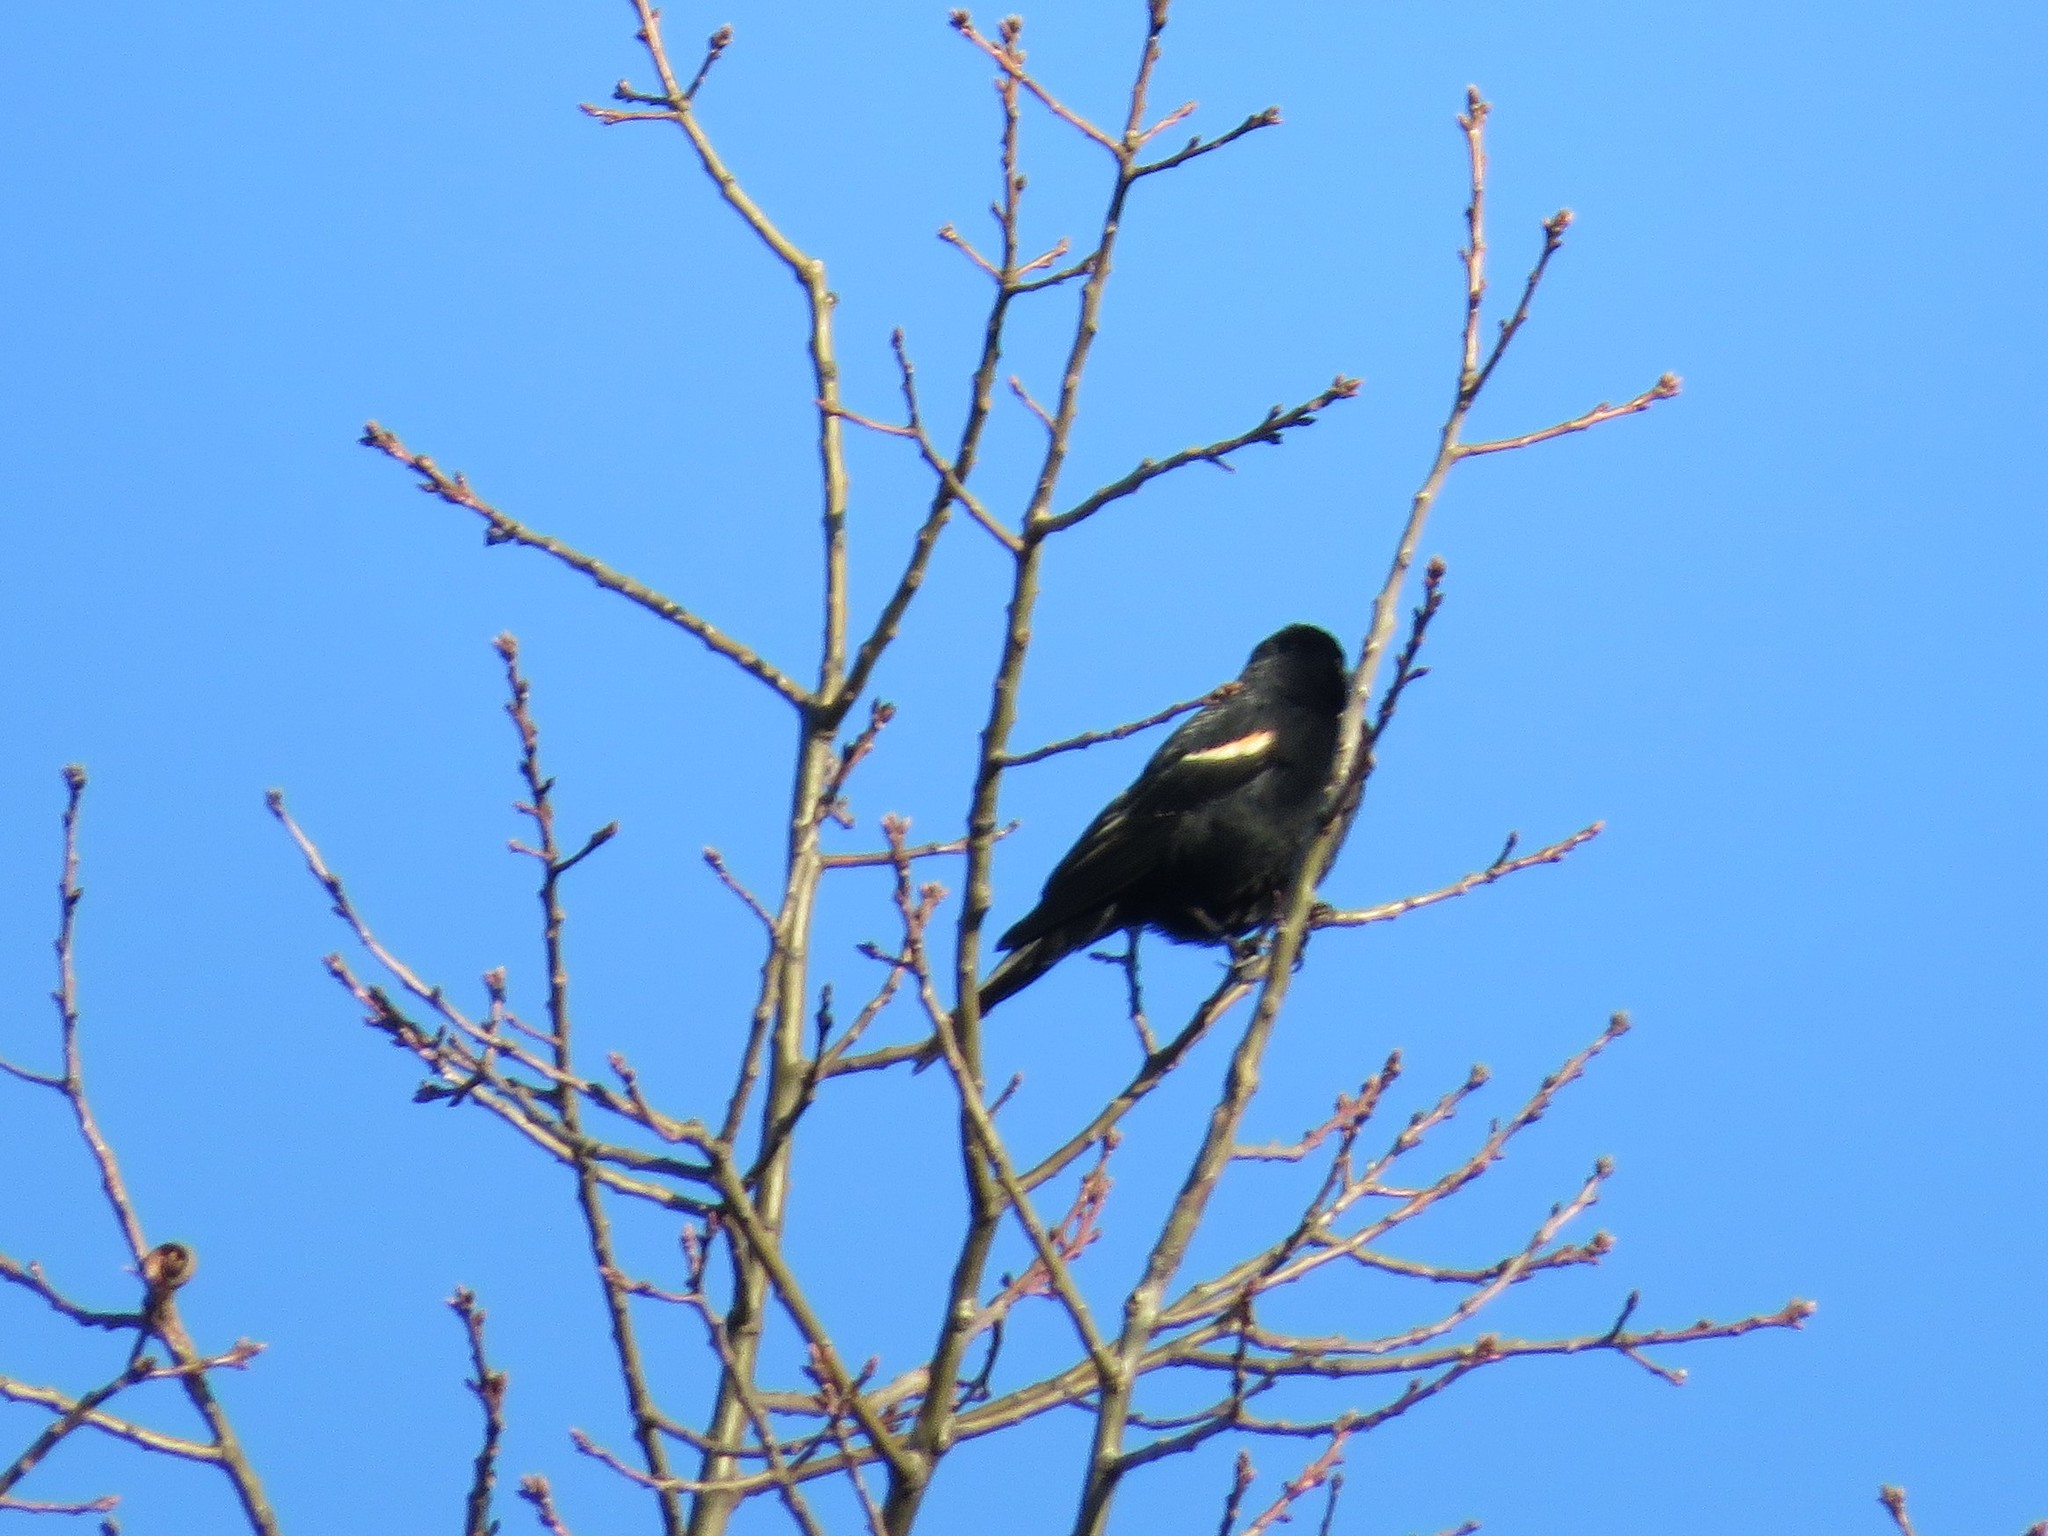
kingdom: Animalia
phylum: Chordata
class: Aves
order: Passeriformes
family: Icteridae
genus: Agelaius
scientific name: Agelaius phoeniceus
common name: Red-winged blackbird
